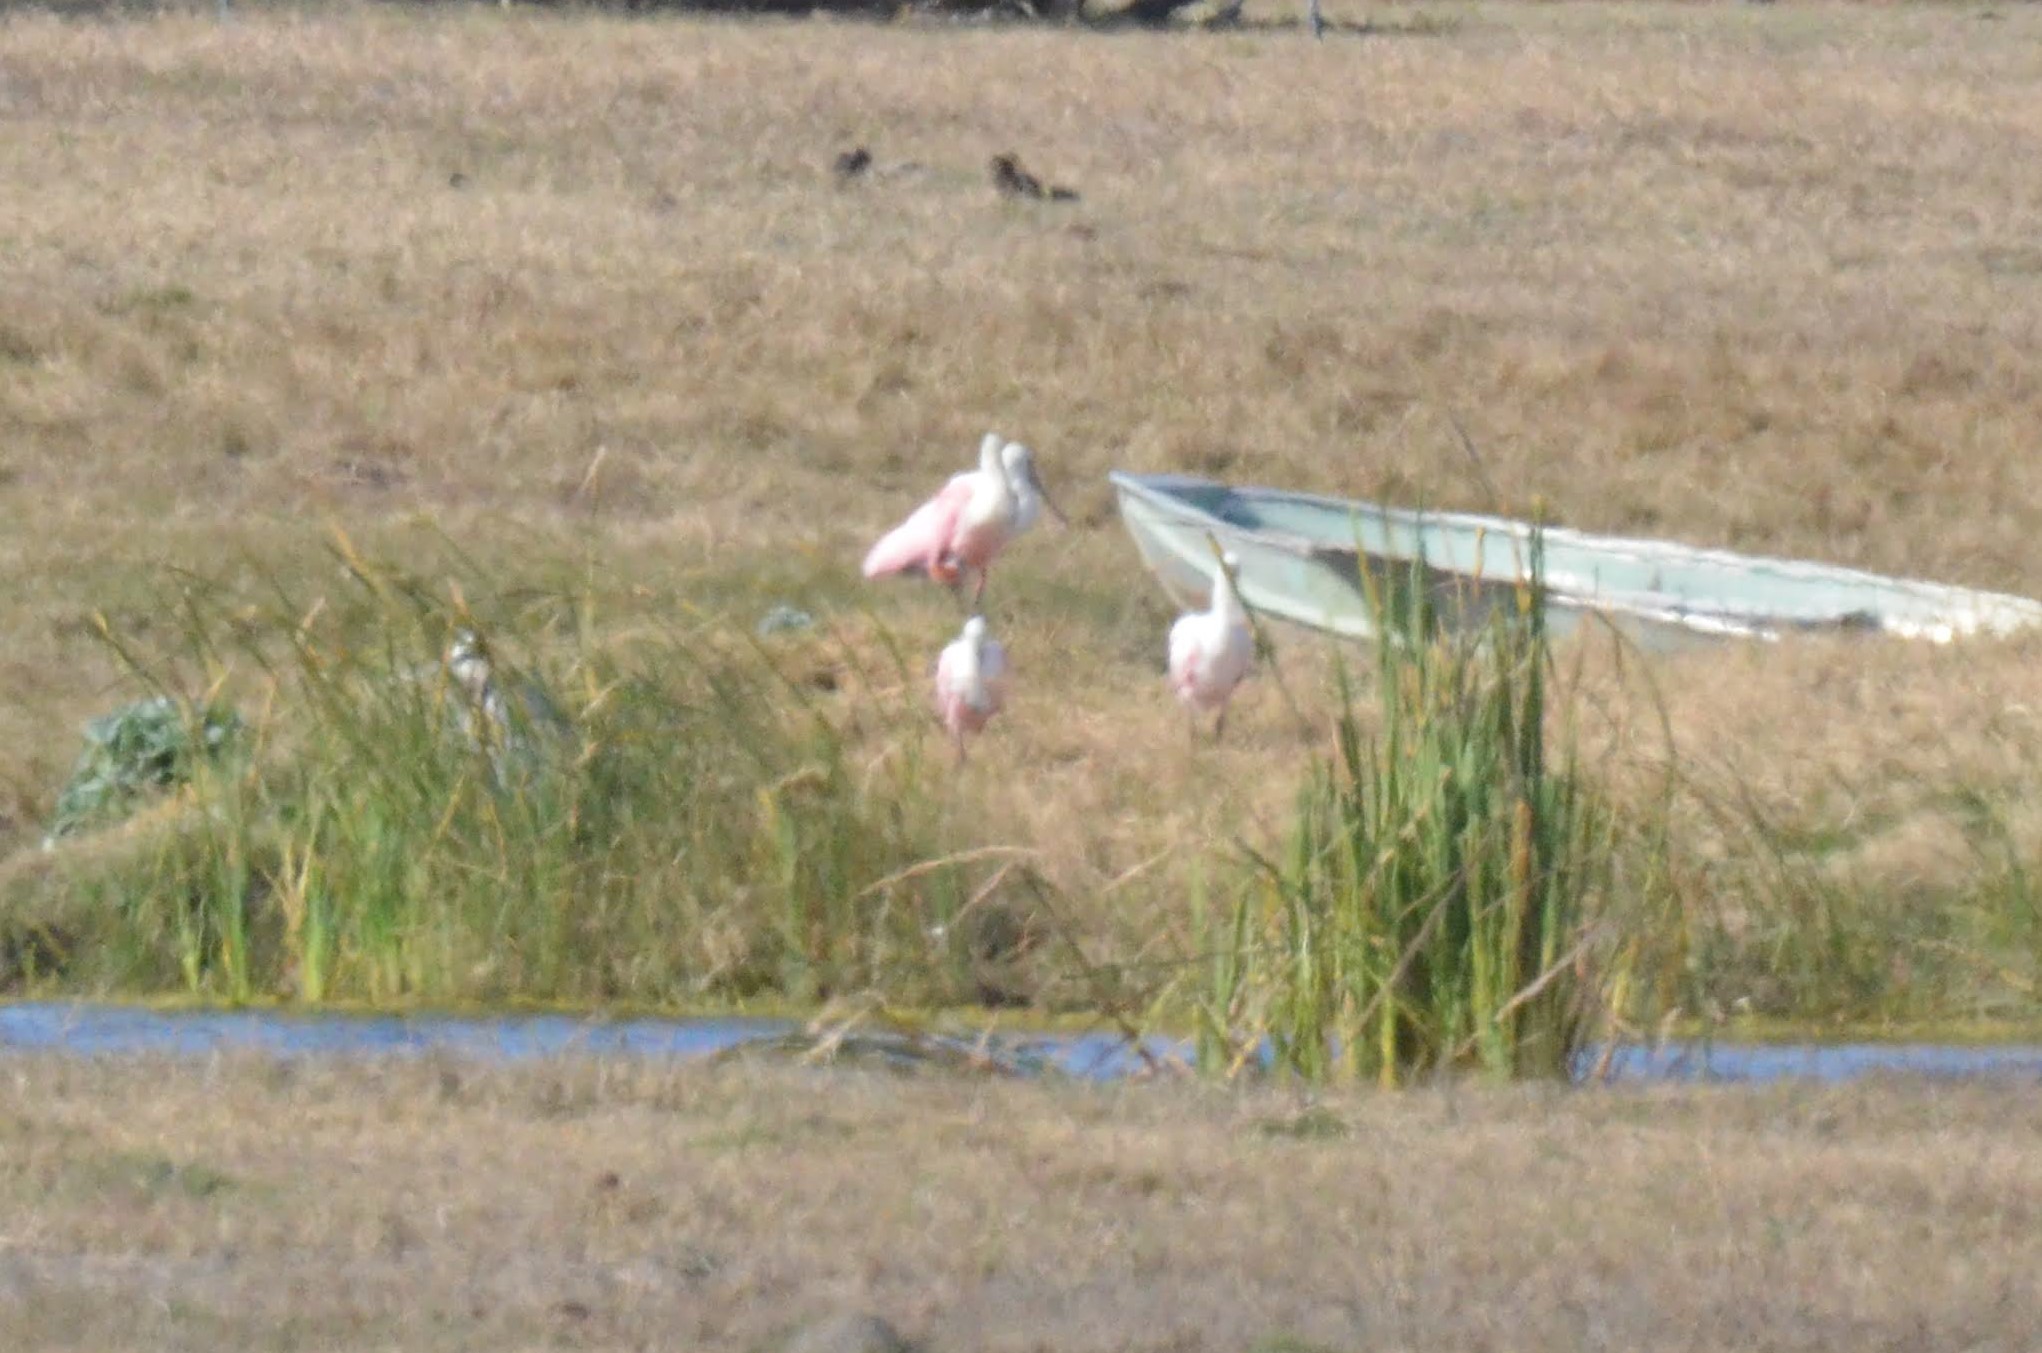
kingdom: Animalia
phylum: Chordata
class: Aves
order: Pelecaniformes
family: Threskiornithidae
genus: Platalea
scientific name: Platalea ajaja
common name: Roseate spoonbill
